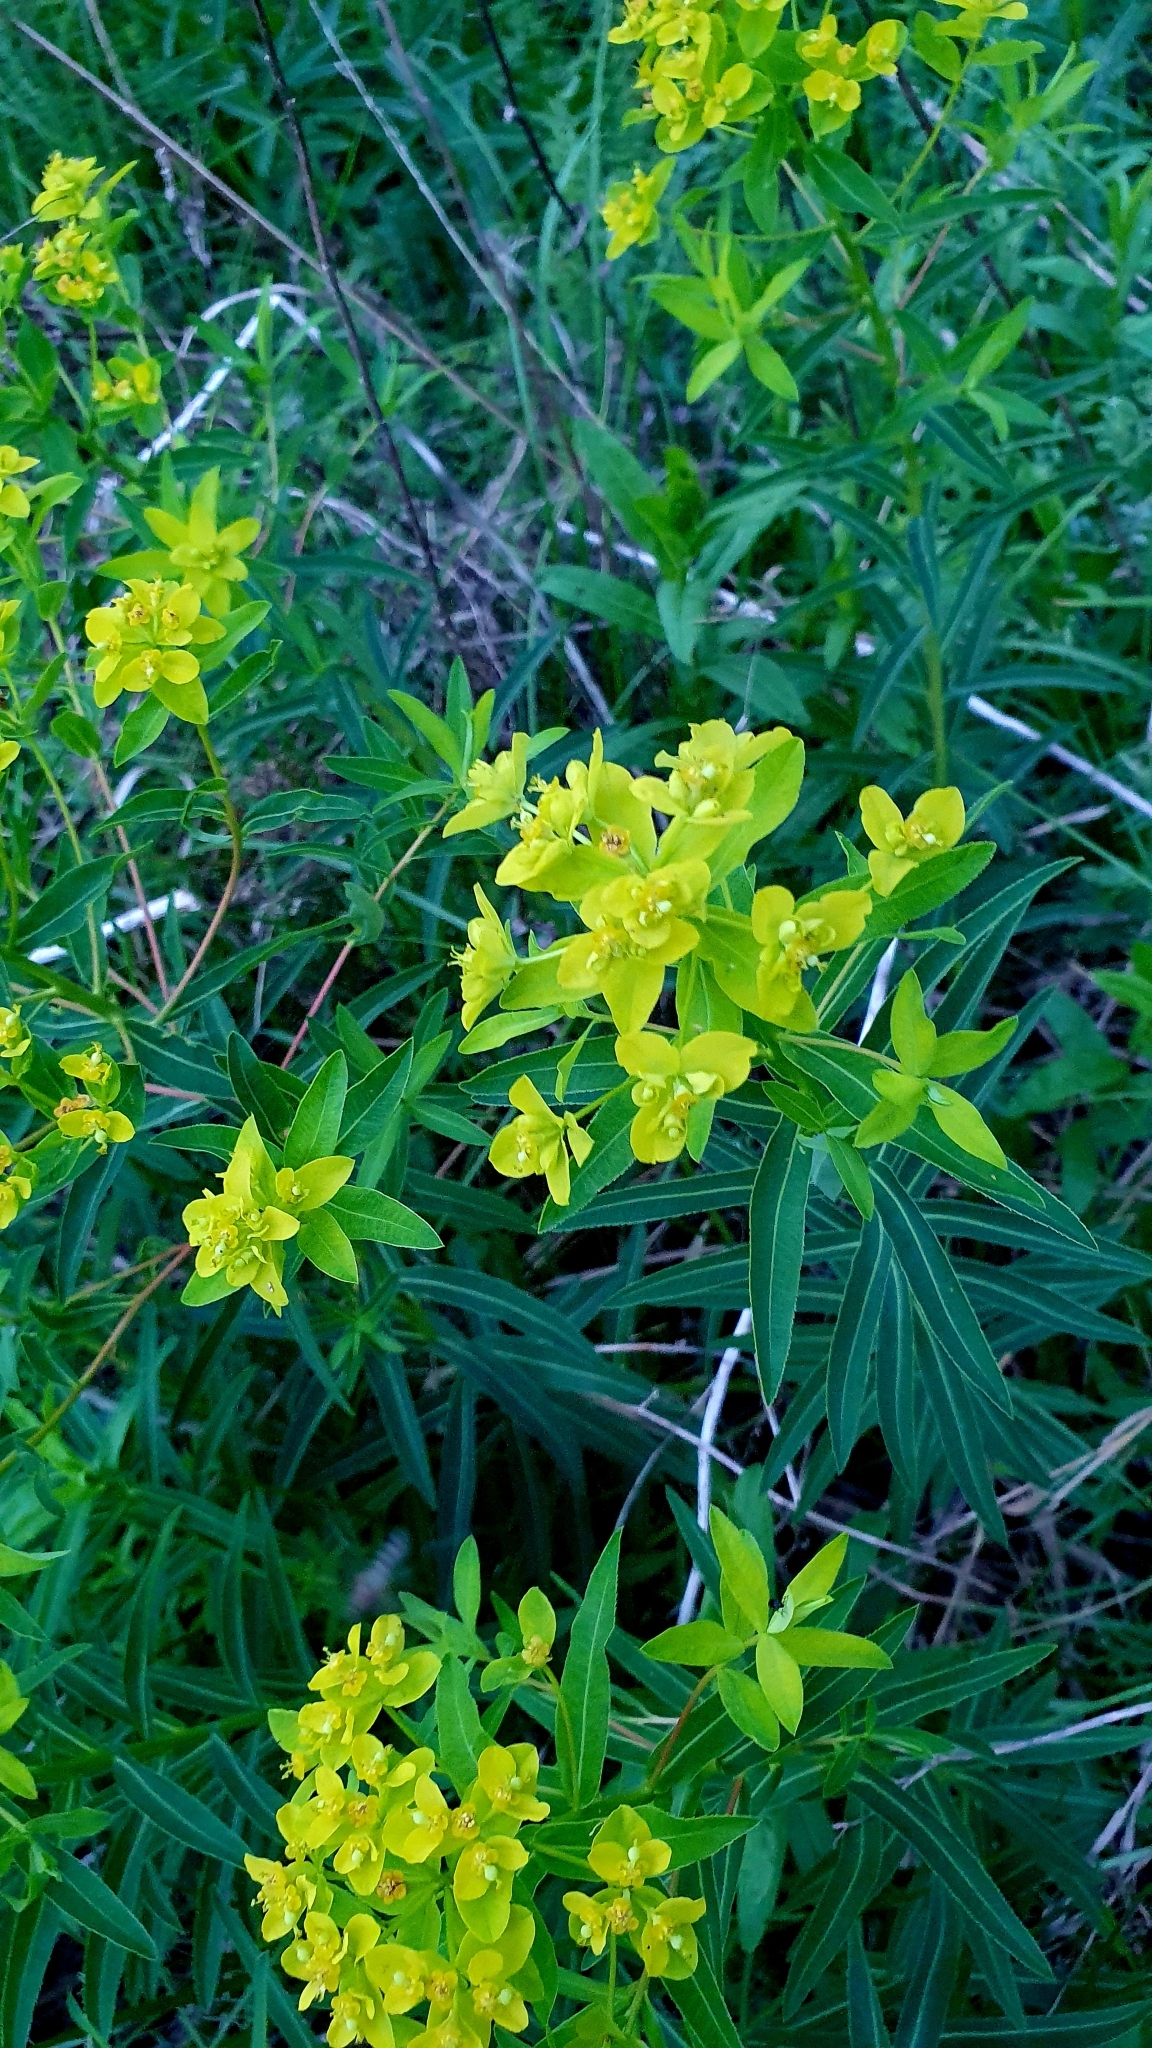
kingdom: Plantae
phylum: Tracheophyta
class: Magnoliopsida
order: Malpighiales
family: Euphorbiaceae
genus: Euphorbia
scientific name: Euphorbia semivillosa
